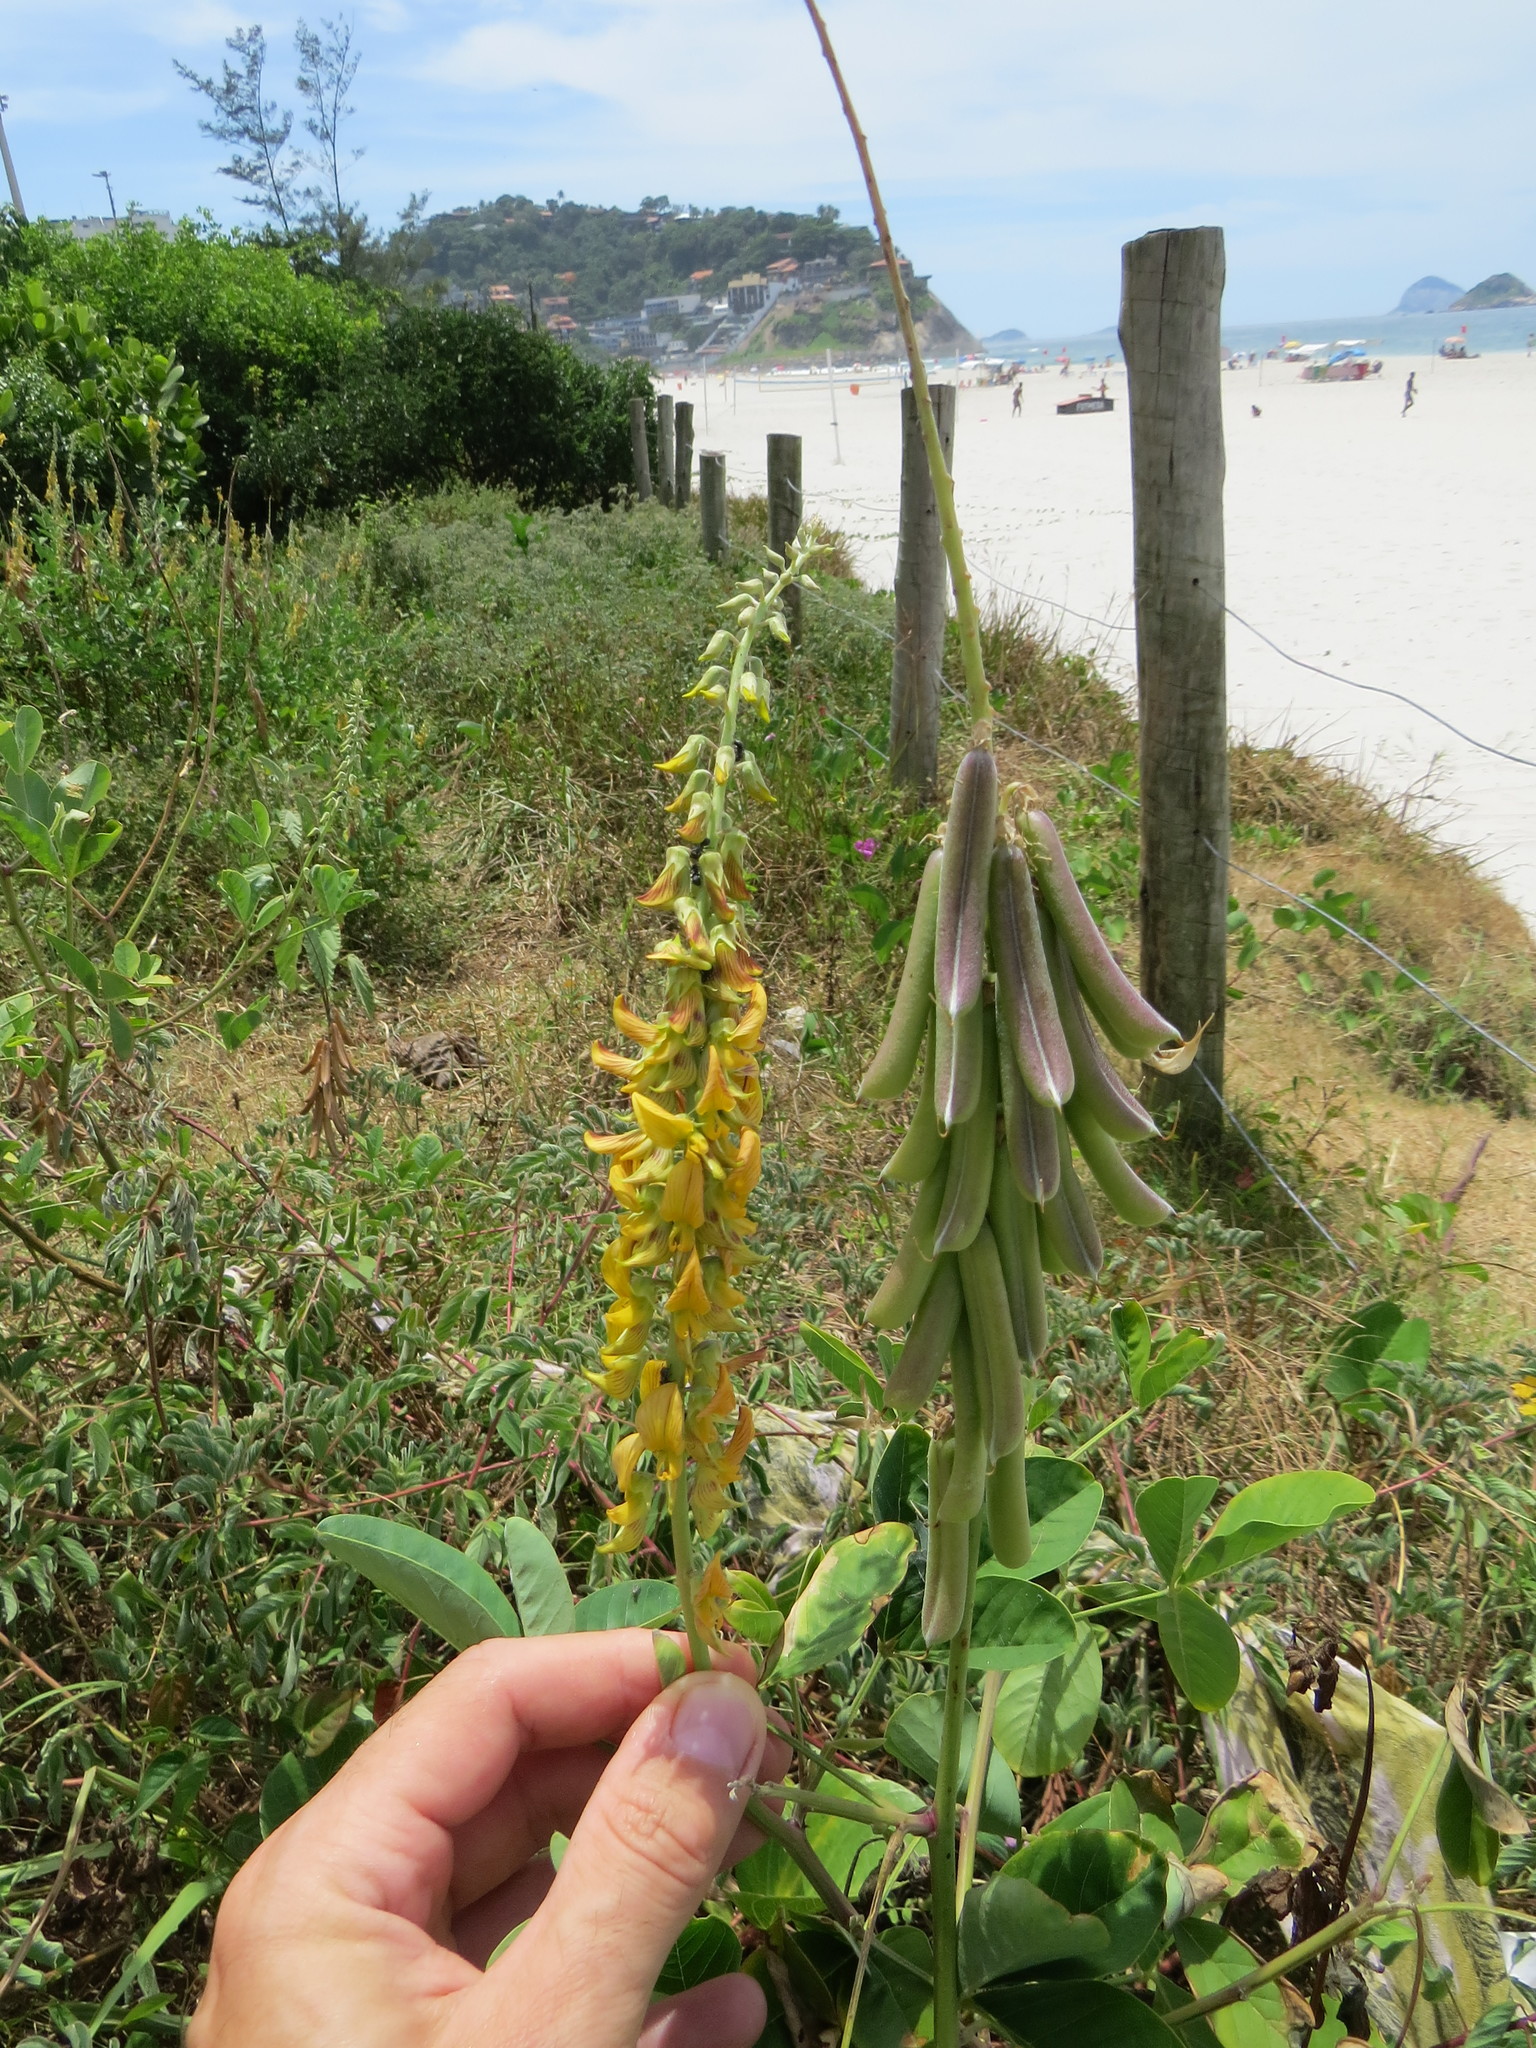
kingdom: Plantae
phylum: Tracheophyta
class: Magnoliopsida
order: Fabales
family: Fabaceae
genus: Crotalaria
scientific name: Crotalaria pallida
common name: Smooth rattlebox
